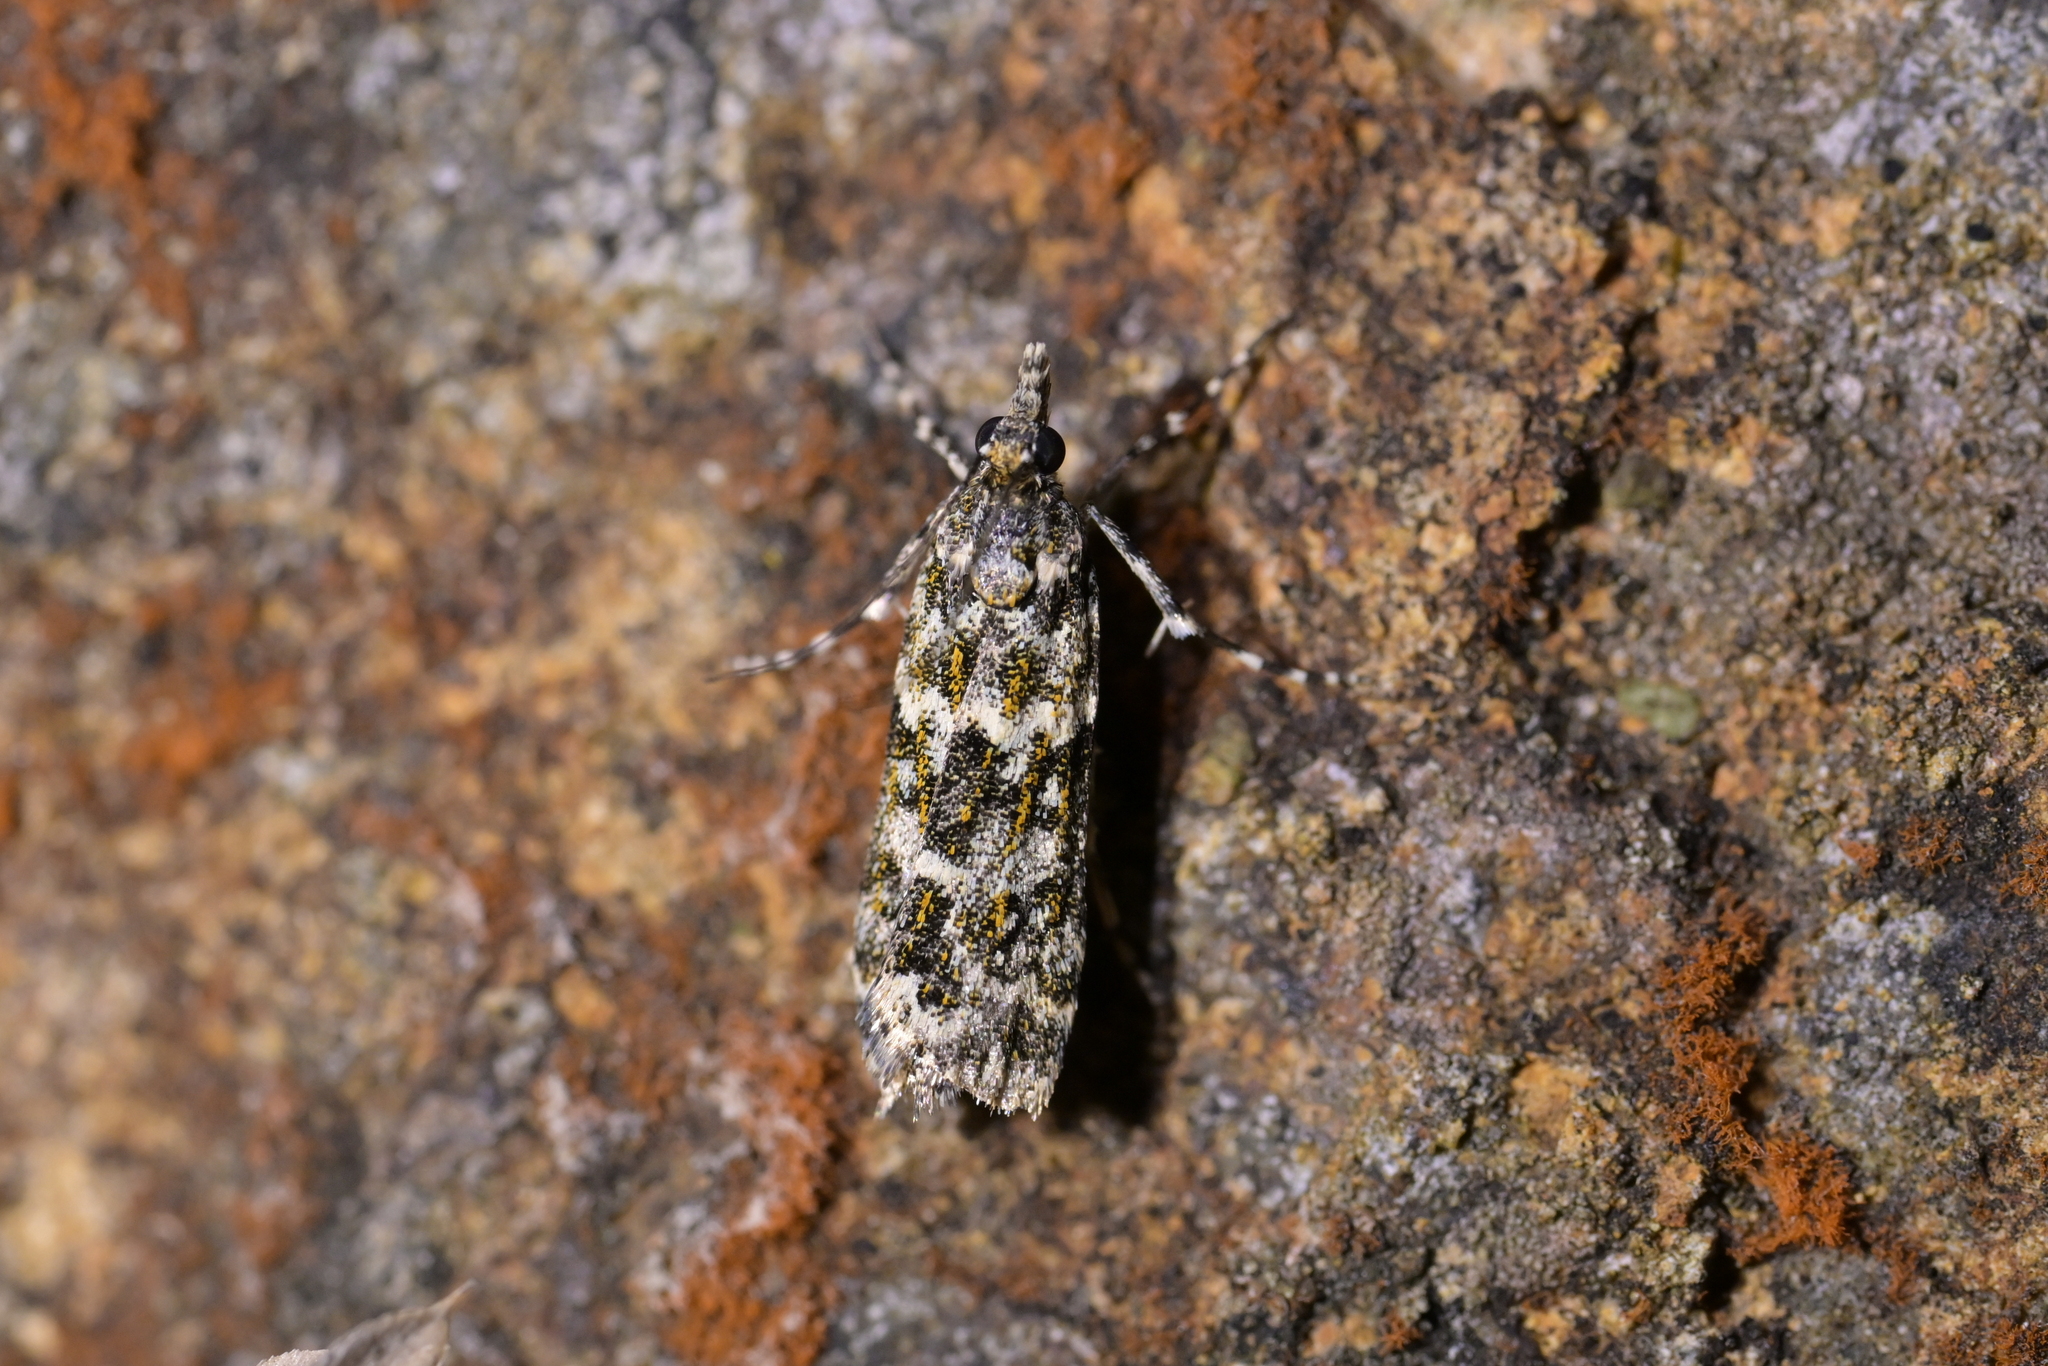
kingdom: Animalia
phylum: Arthropoda
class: Insecta
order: Lepidoptera
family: Crambidae
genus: Eudonia
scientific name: Eudonia
